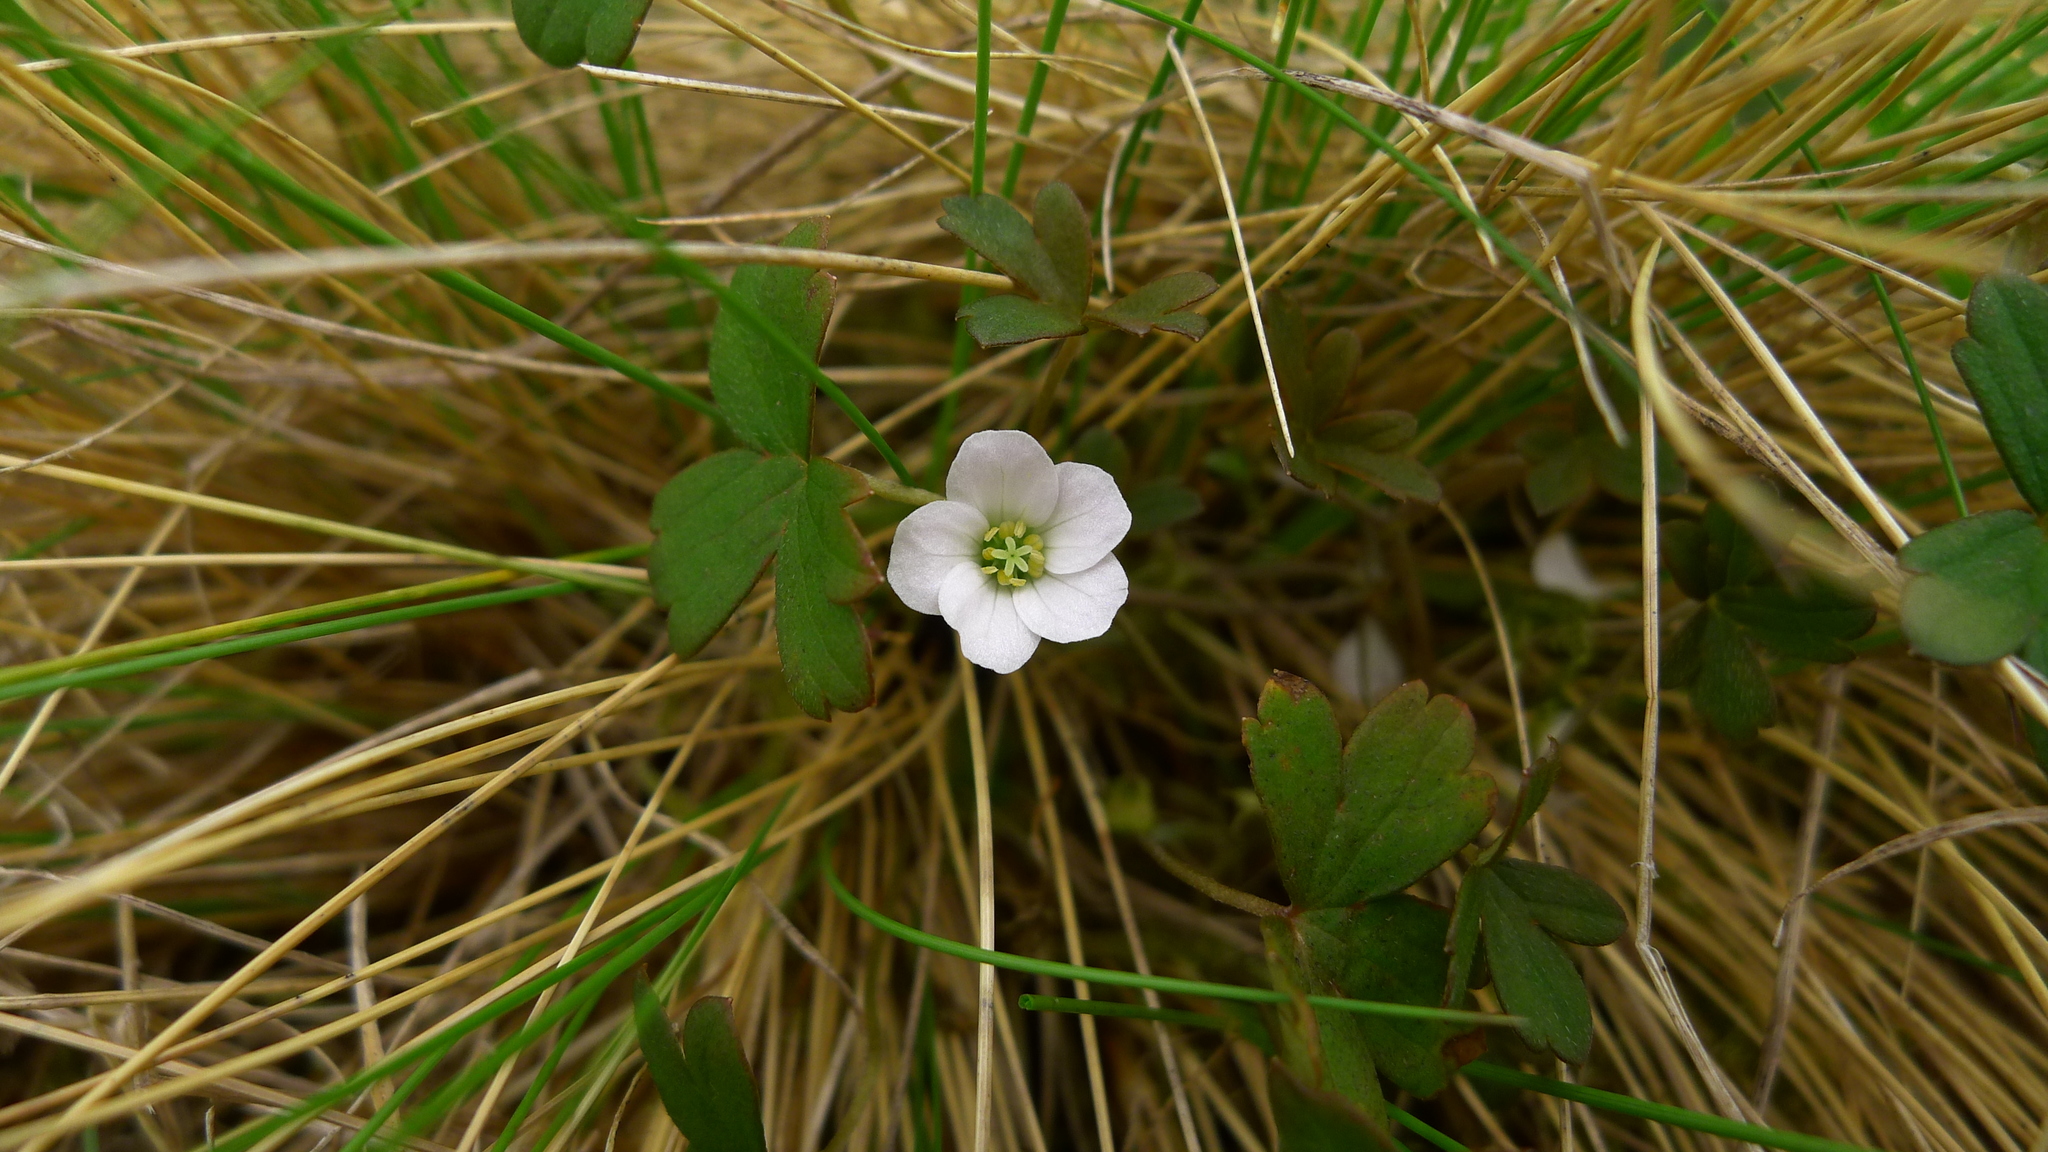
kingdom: Plantae
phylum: Tracheophyta
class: Magnoliopsida
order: Geraniales
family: Geraniaceae
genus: Geranium
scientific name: Geranium
